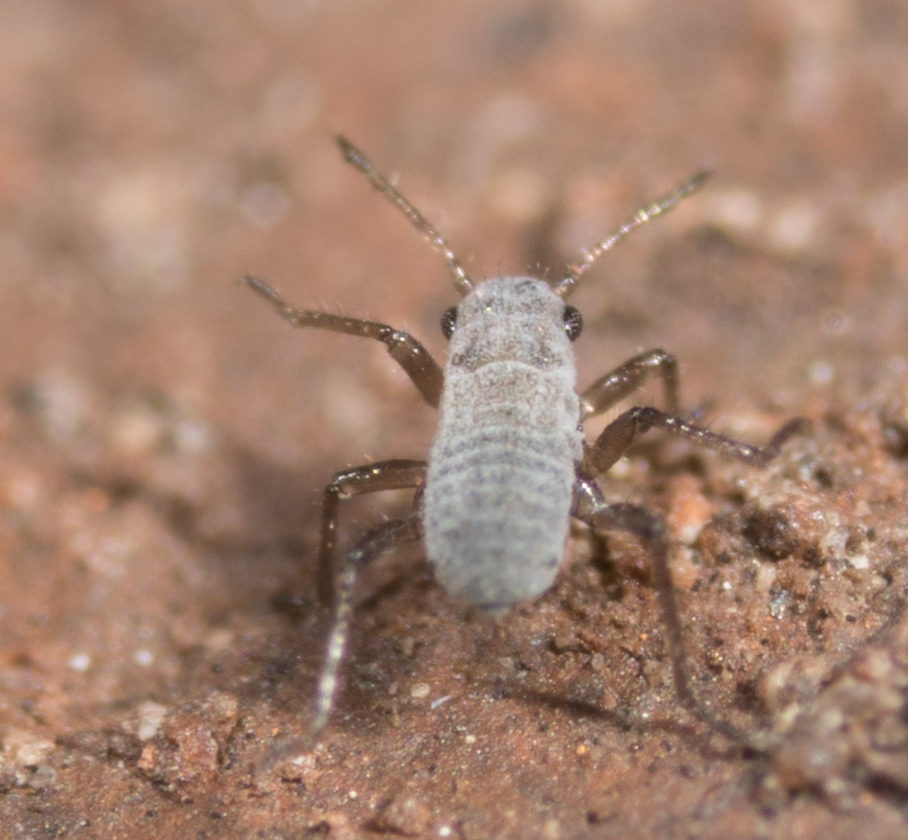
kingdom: Animalia
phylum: Arthropoda
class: Insecta
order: Hemiptera
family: Aphididae
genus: Eulachnus
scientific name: Eulachnus rileyi
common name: Active gray pine needle aphid
